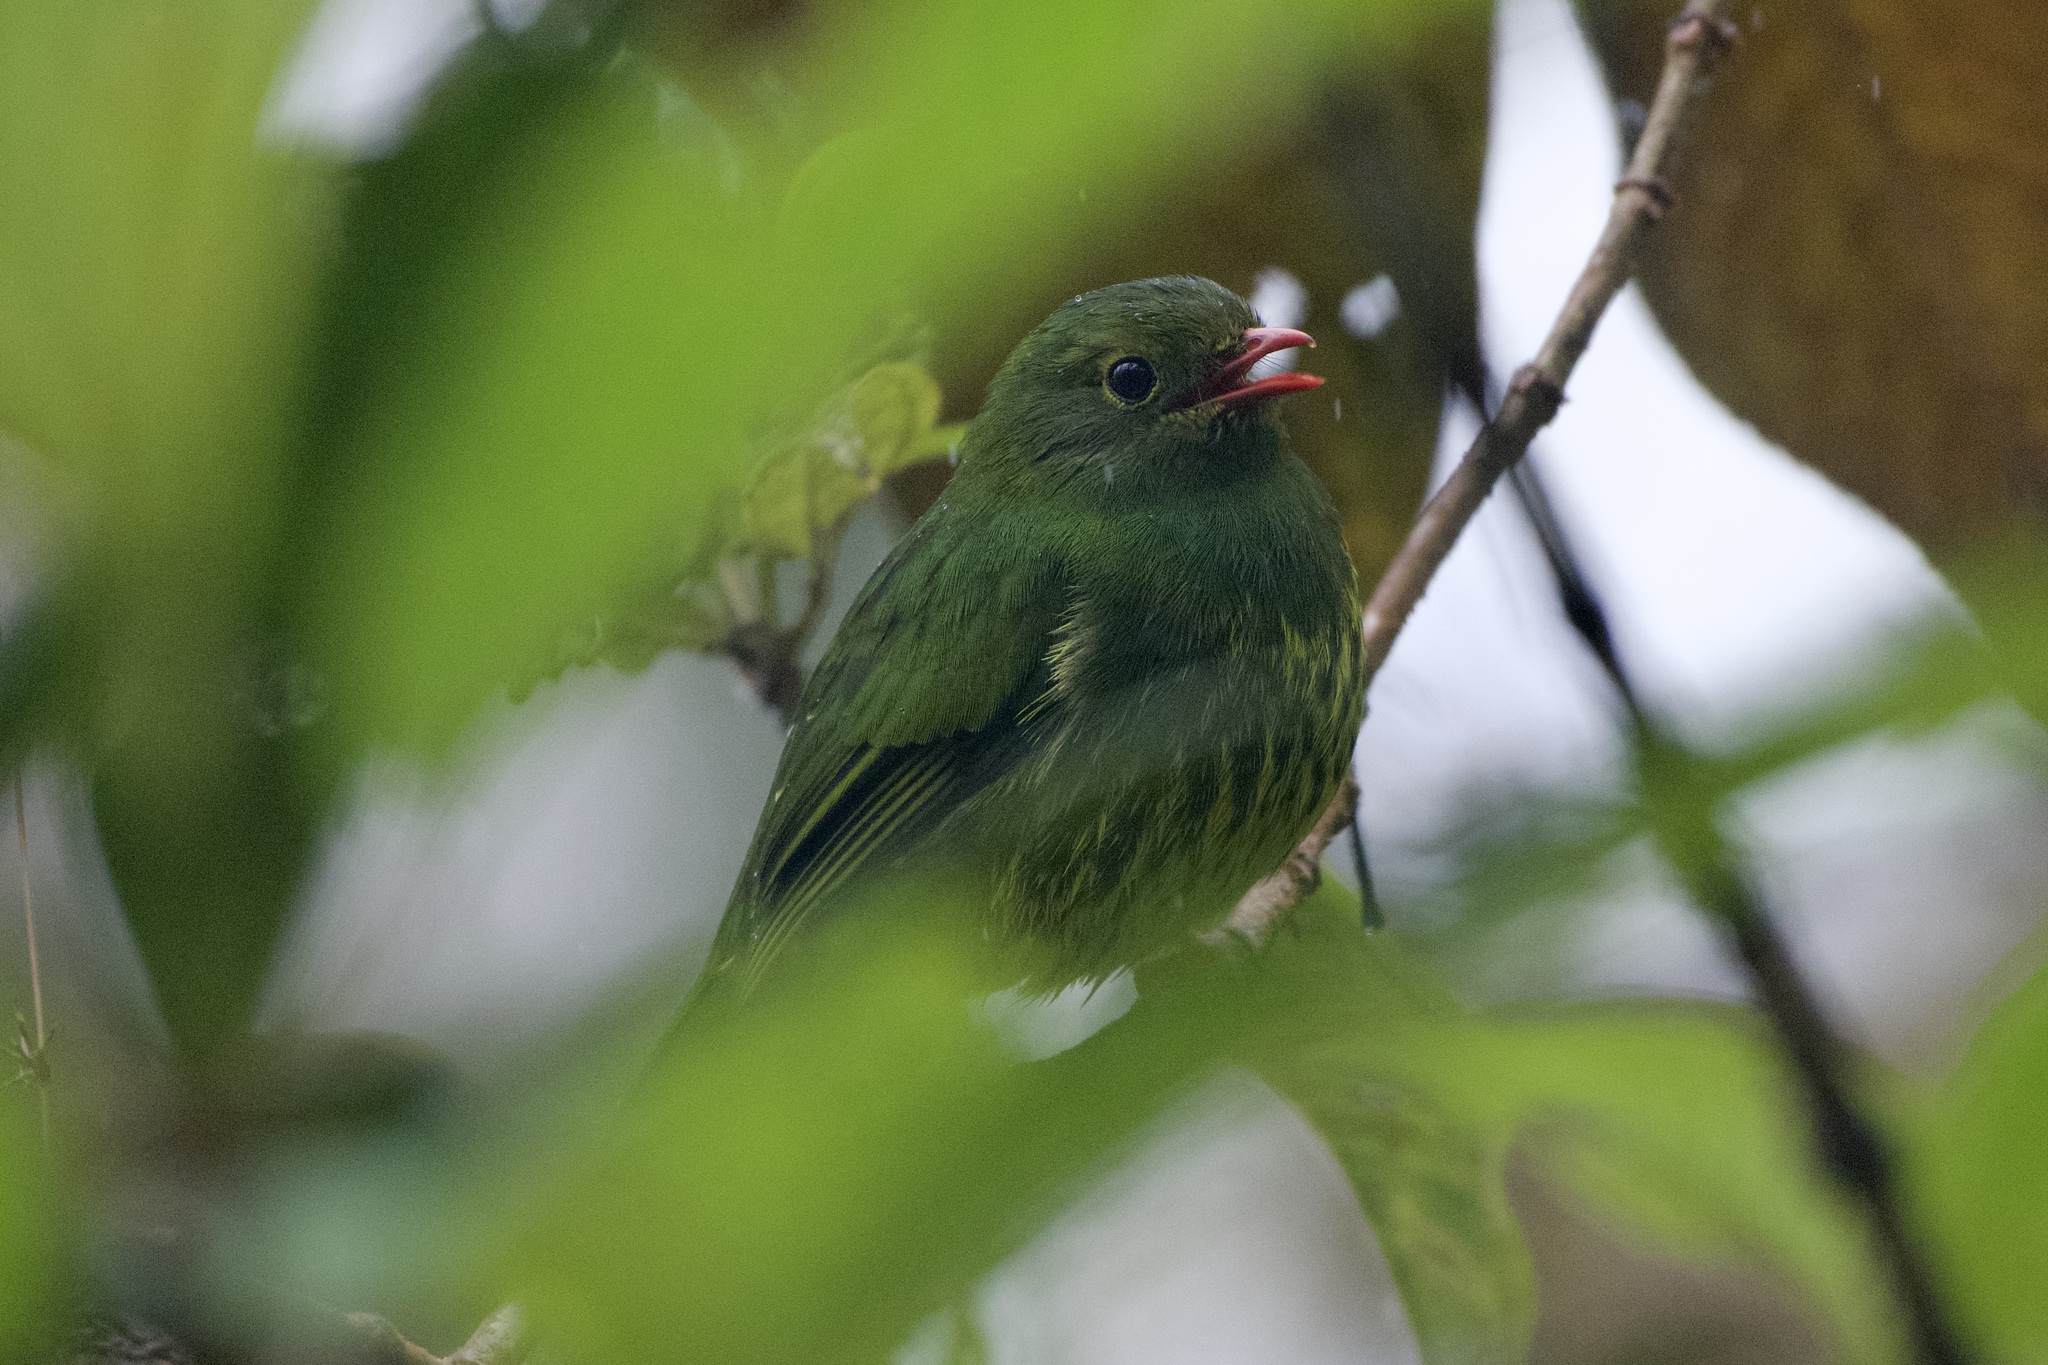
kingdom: Animalia
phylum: Chordata
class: Aves
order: Passeriformes
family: Cotingidae
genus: Pipreola
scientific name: Pipreola riefferii
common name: Green-and-black fruiteater
